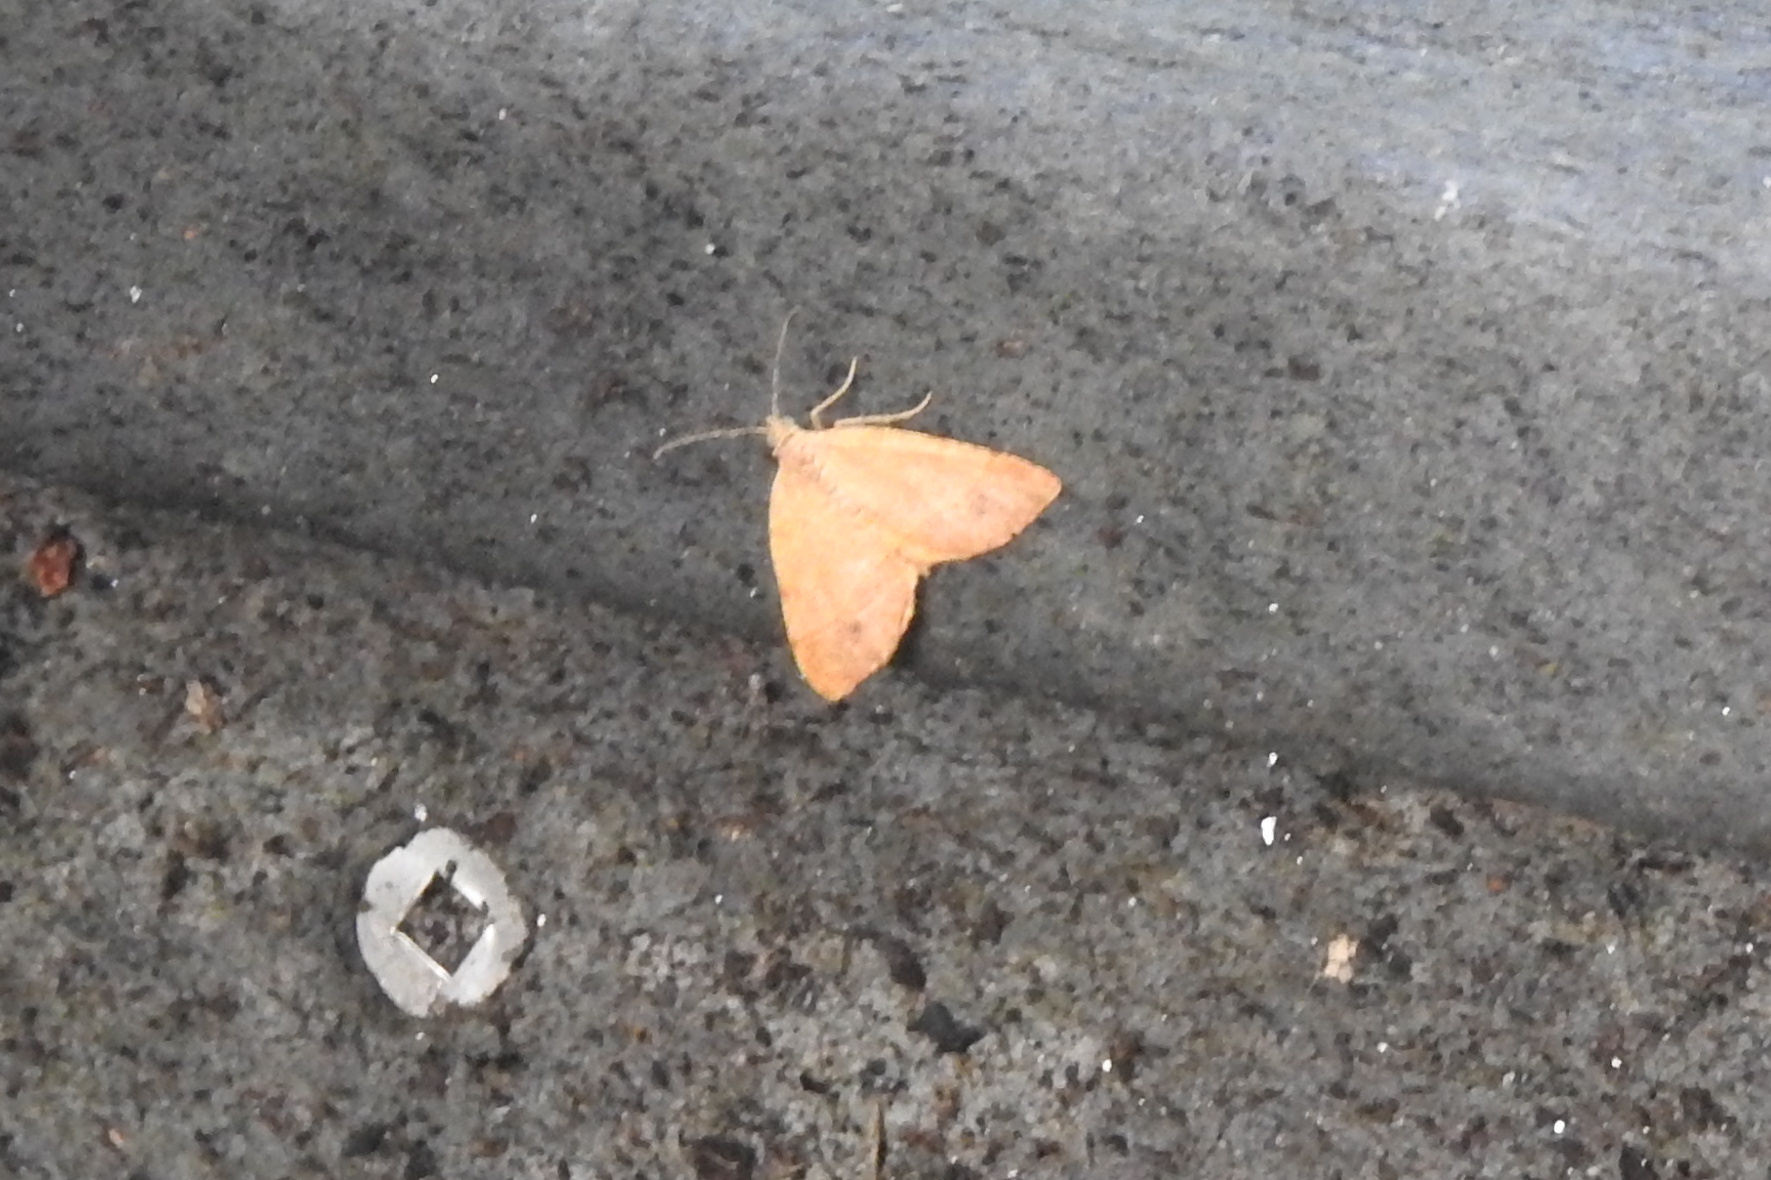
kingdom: Animalia
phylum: Arthropoda
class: Insecta
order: Lepidoptera
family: Geometridae
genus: Mellilla
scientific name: Mellilla xanthometata
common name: Orange wing moth
